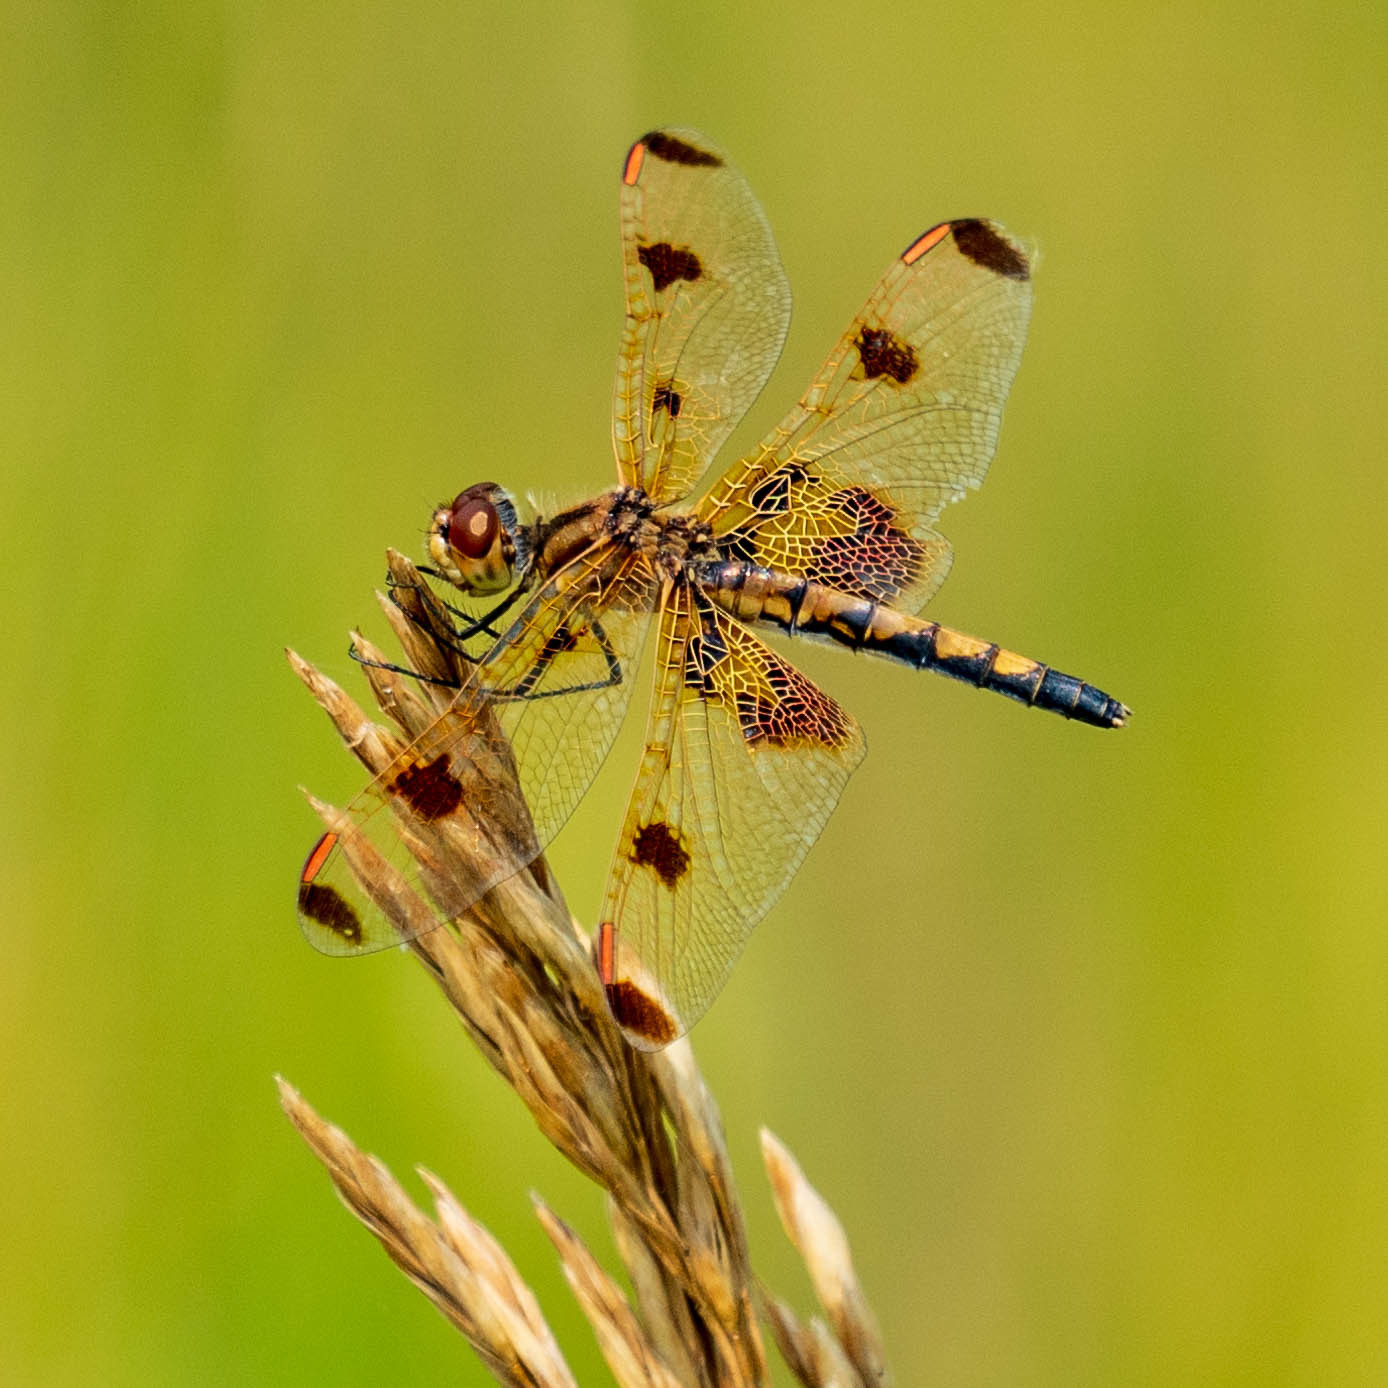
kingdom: Animalia
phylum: Arthropoda
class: Insecta
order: Odonata
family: Libellulidae
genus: Celithemis
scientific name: Celithemis elisa
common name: Calico pennant
